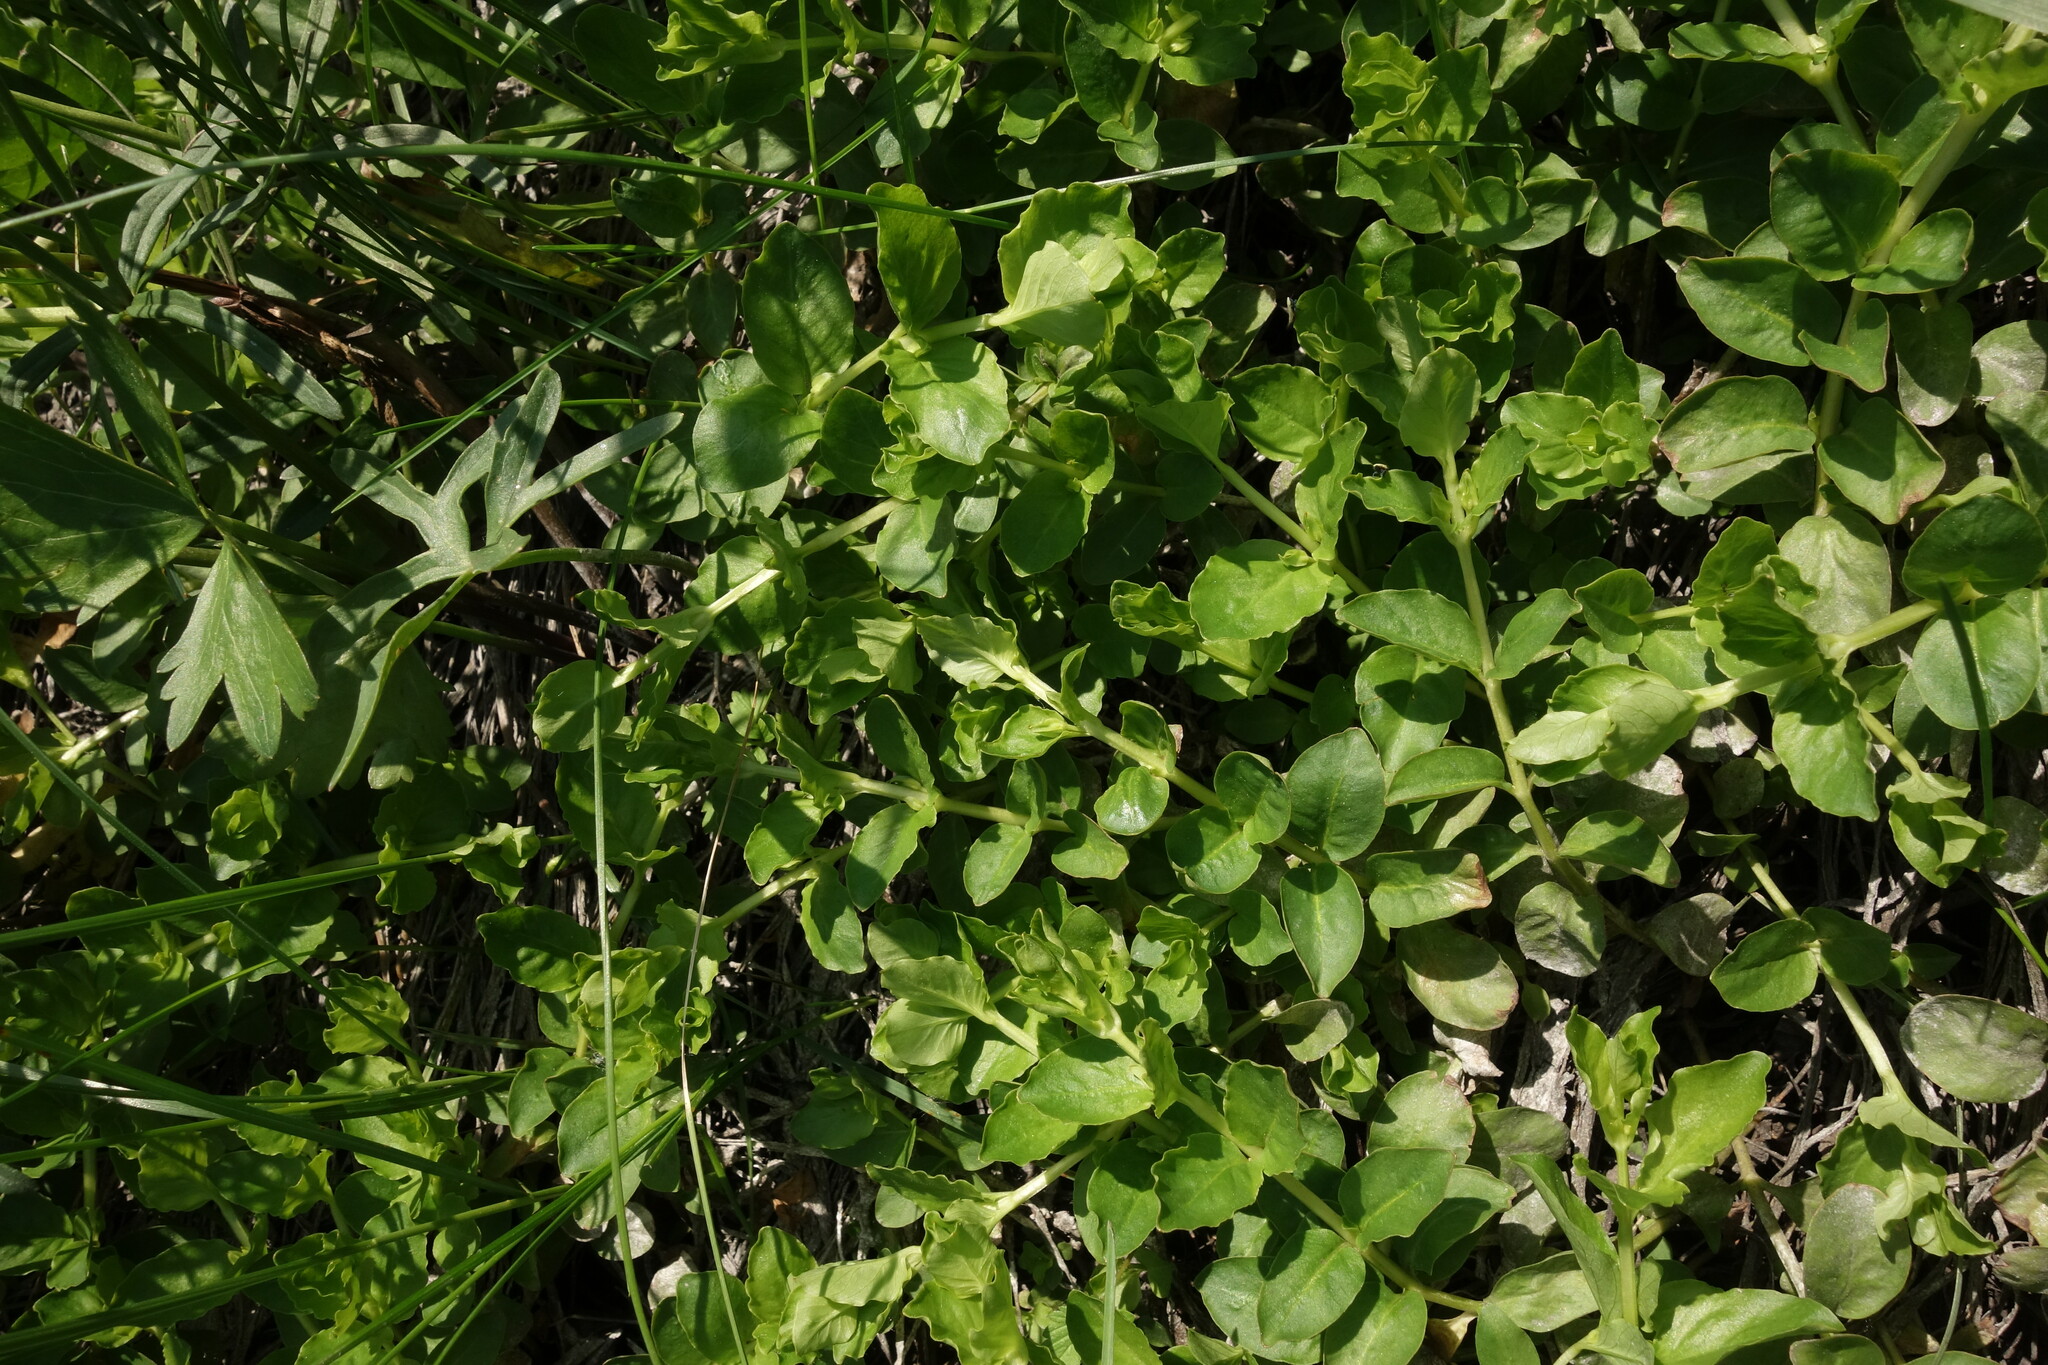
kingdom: Plantae
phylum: Tracheophyta
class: Magnoliopsida
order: Ericales
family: Primulaceae
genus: Lysimachia
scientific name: Lysimachia nummularia
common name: Moneywort
